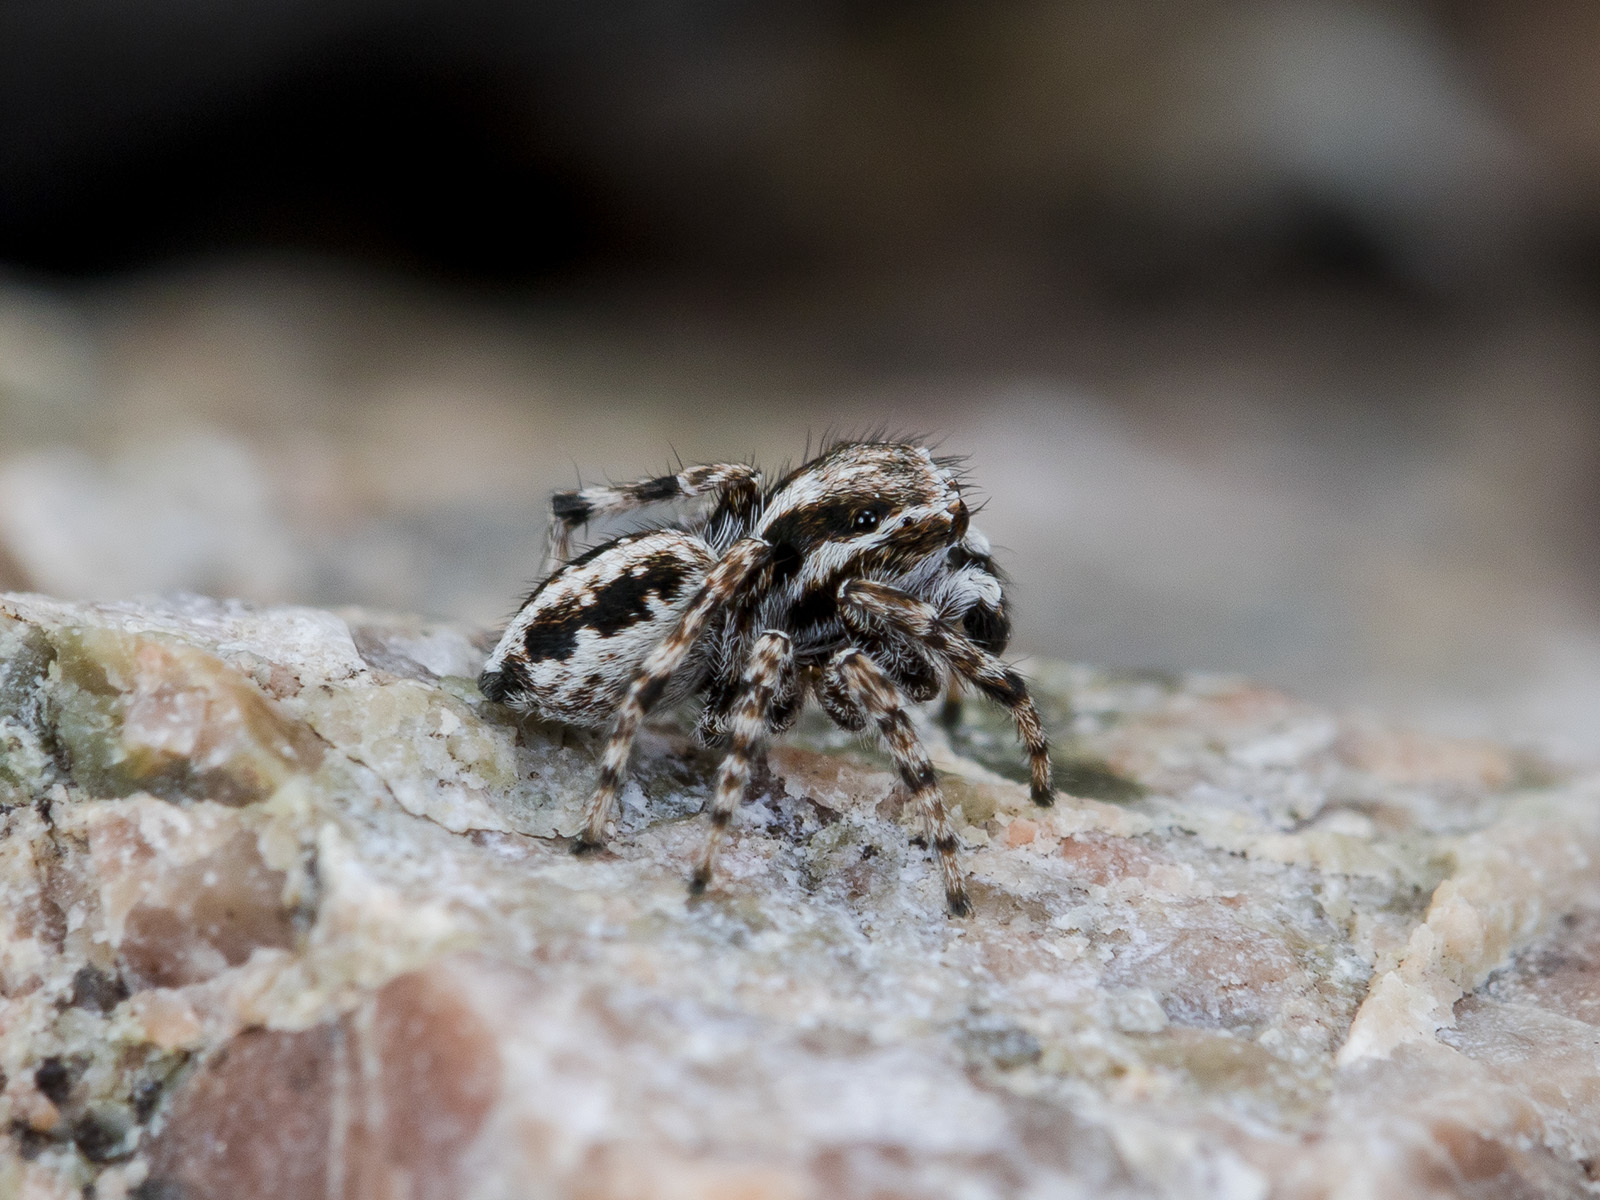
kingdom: Animalia
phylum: Arthropoda
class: Arachnida
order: Araneae
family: Salticidae
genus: Attulus
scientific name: Attulus avocator
